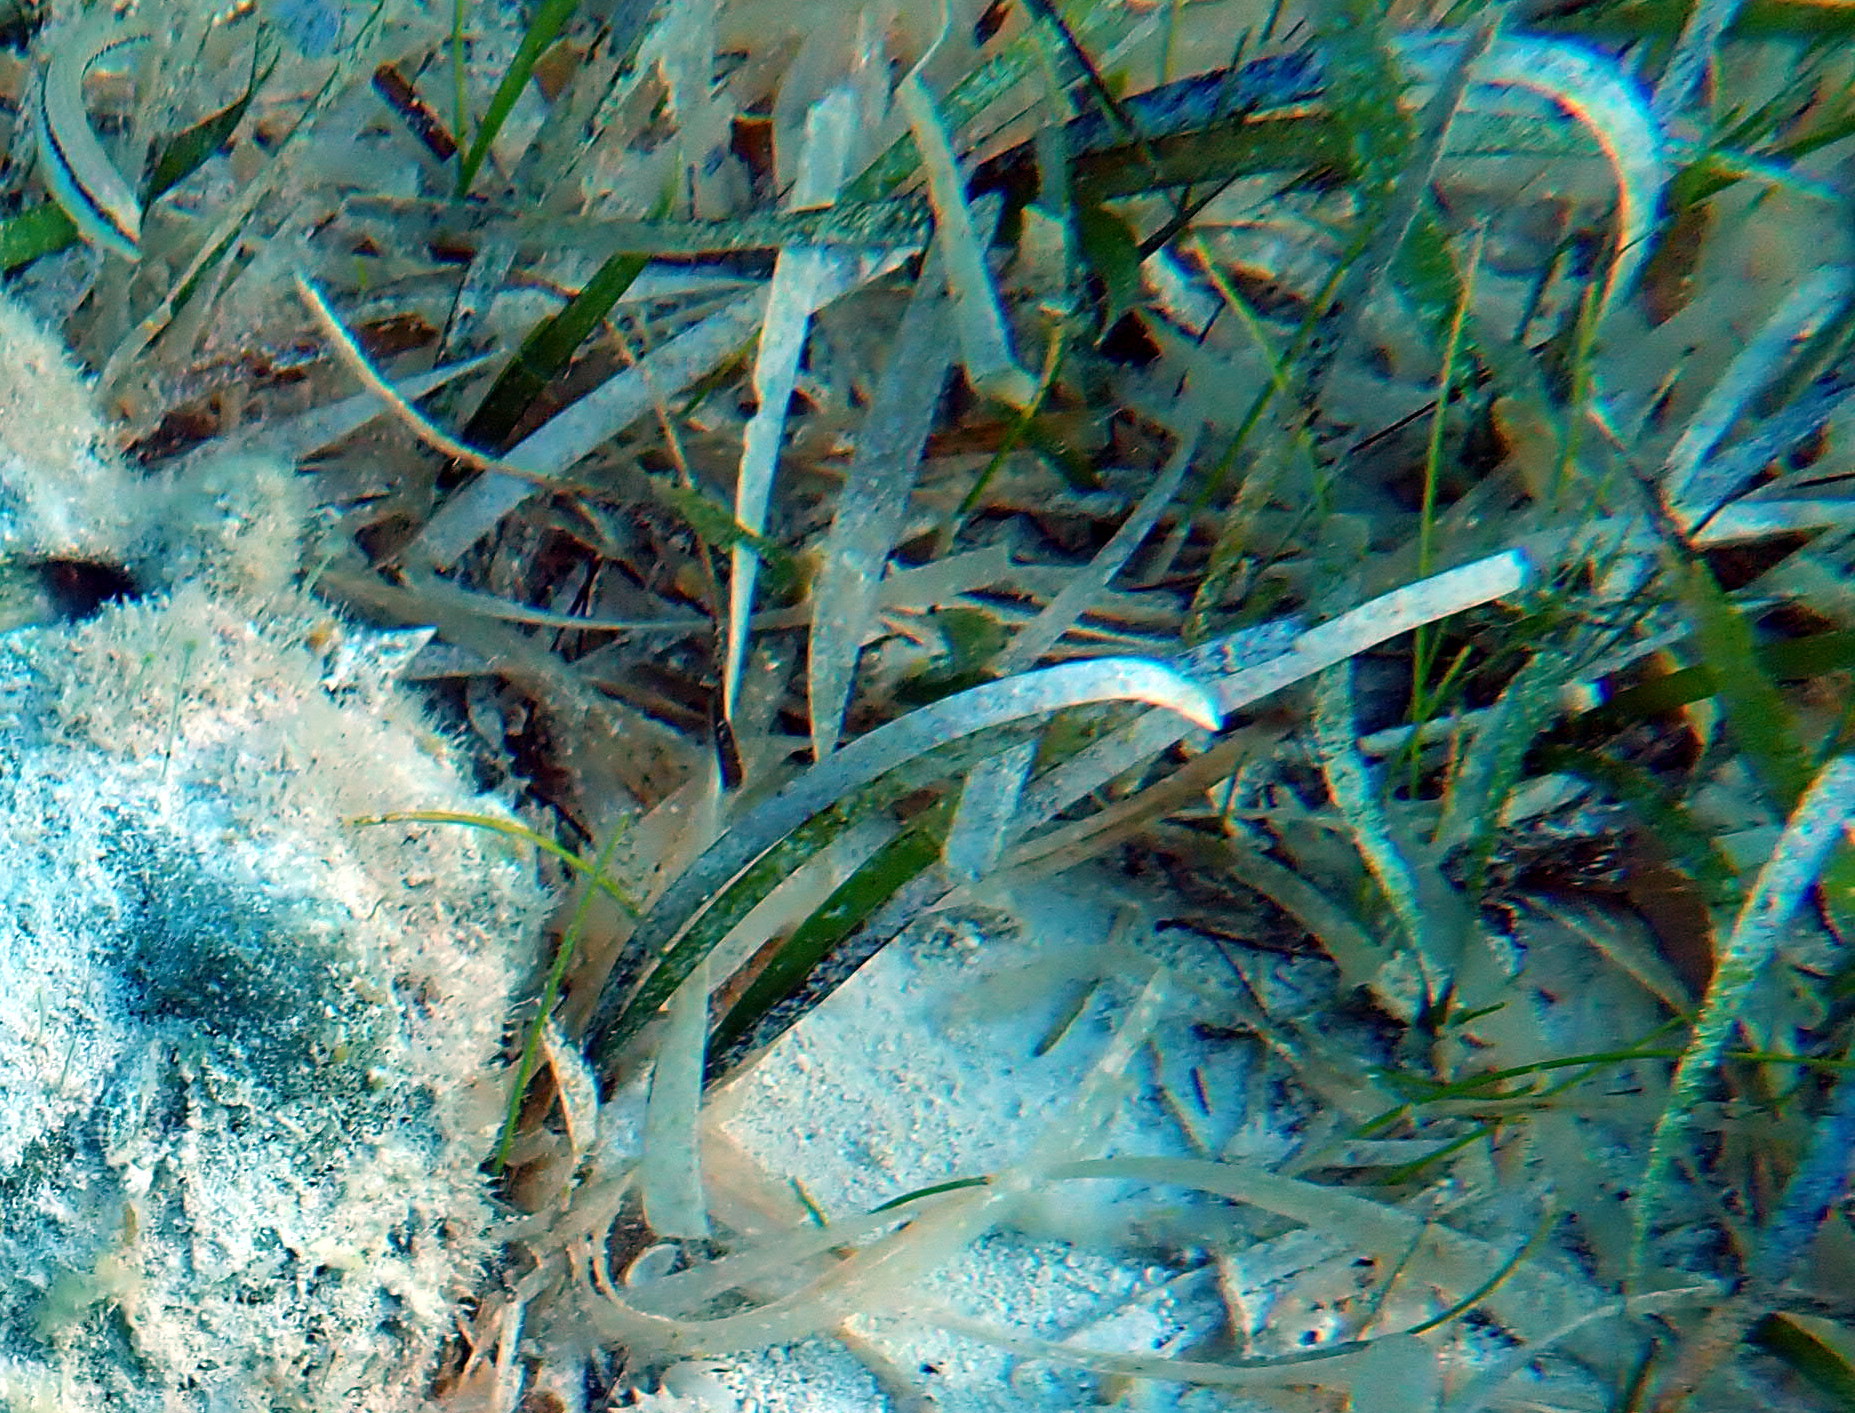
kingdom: Plantae
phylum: Tracheophyta
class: Liliopsida
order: Alismatales
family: Hydrocharitaceae
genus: Thalassia
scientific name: Thalassia testudinum
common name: Species code: tt
